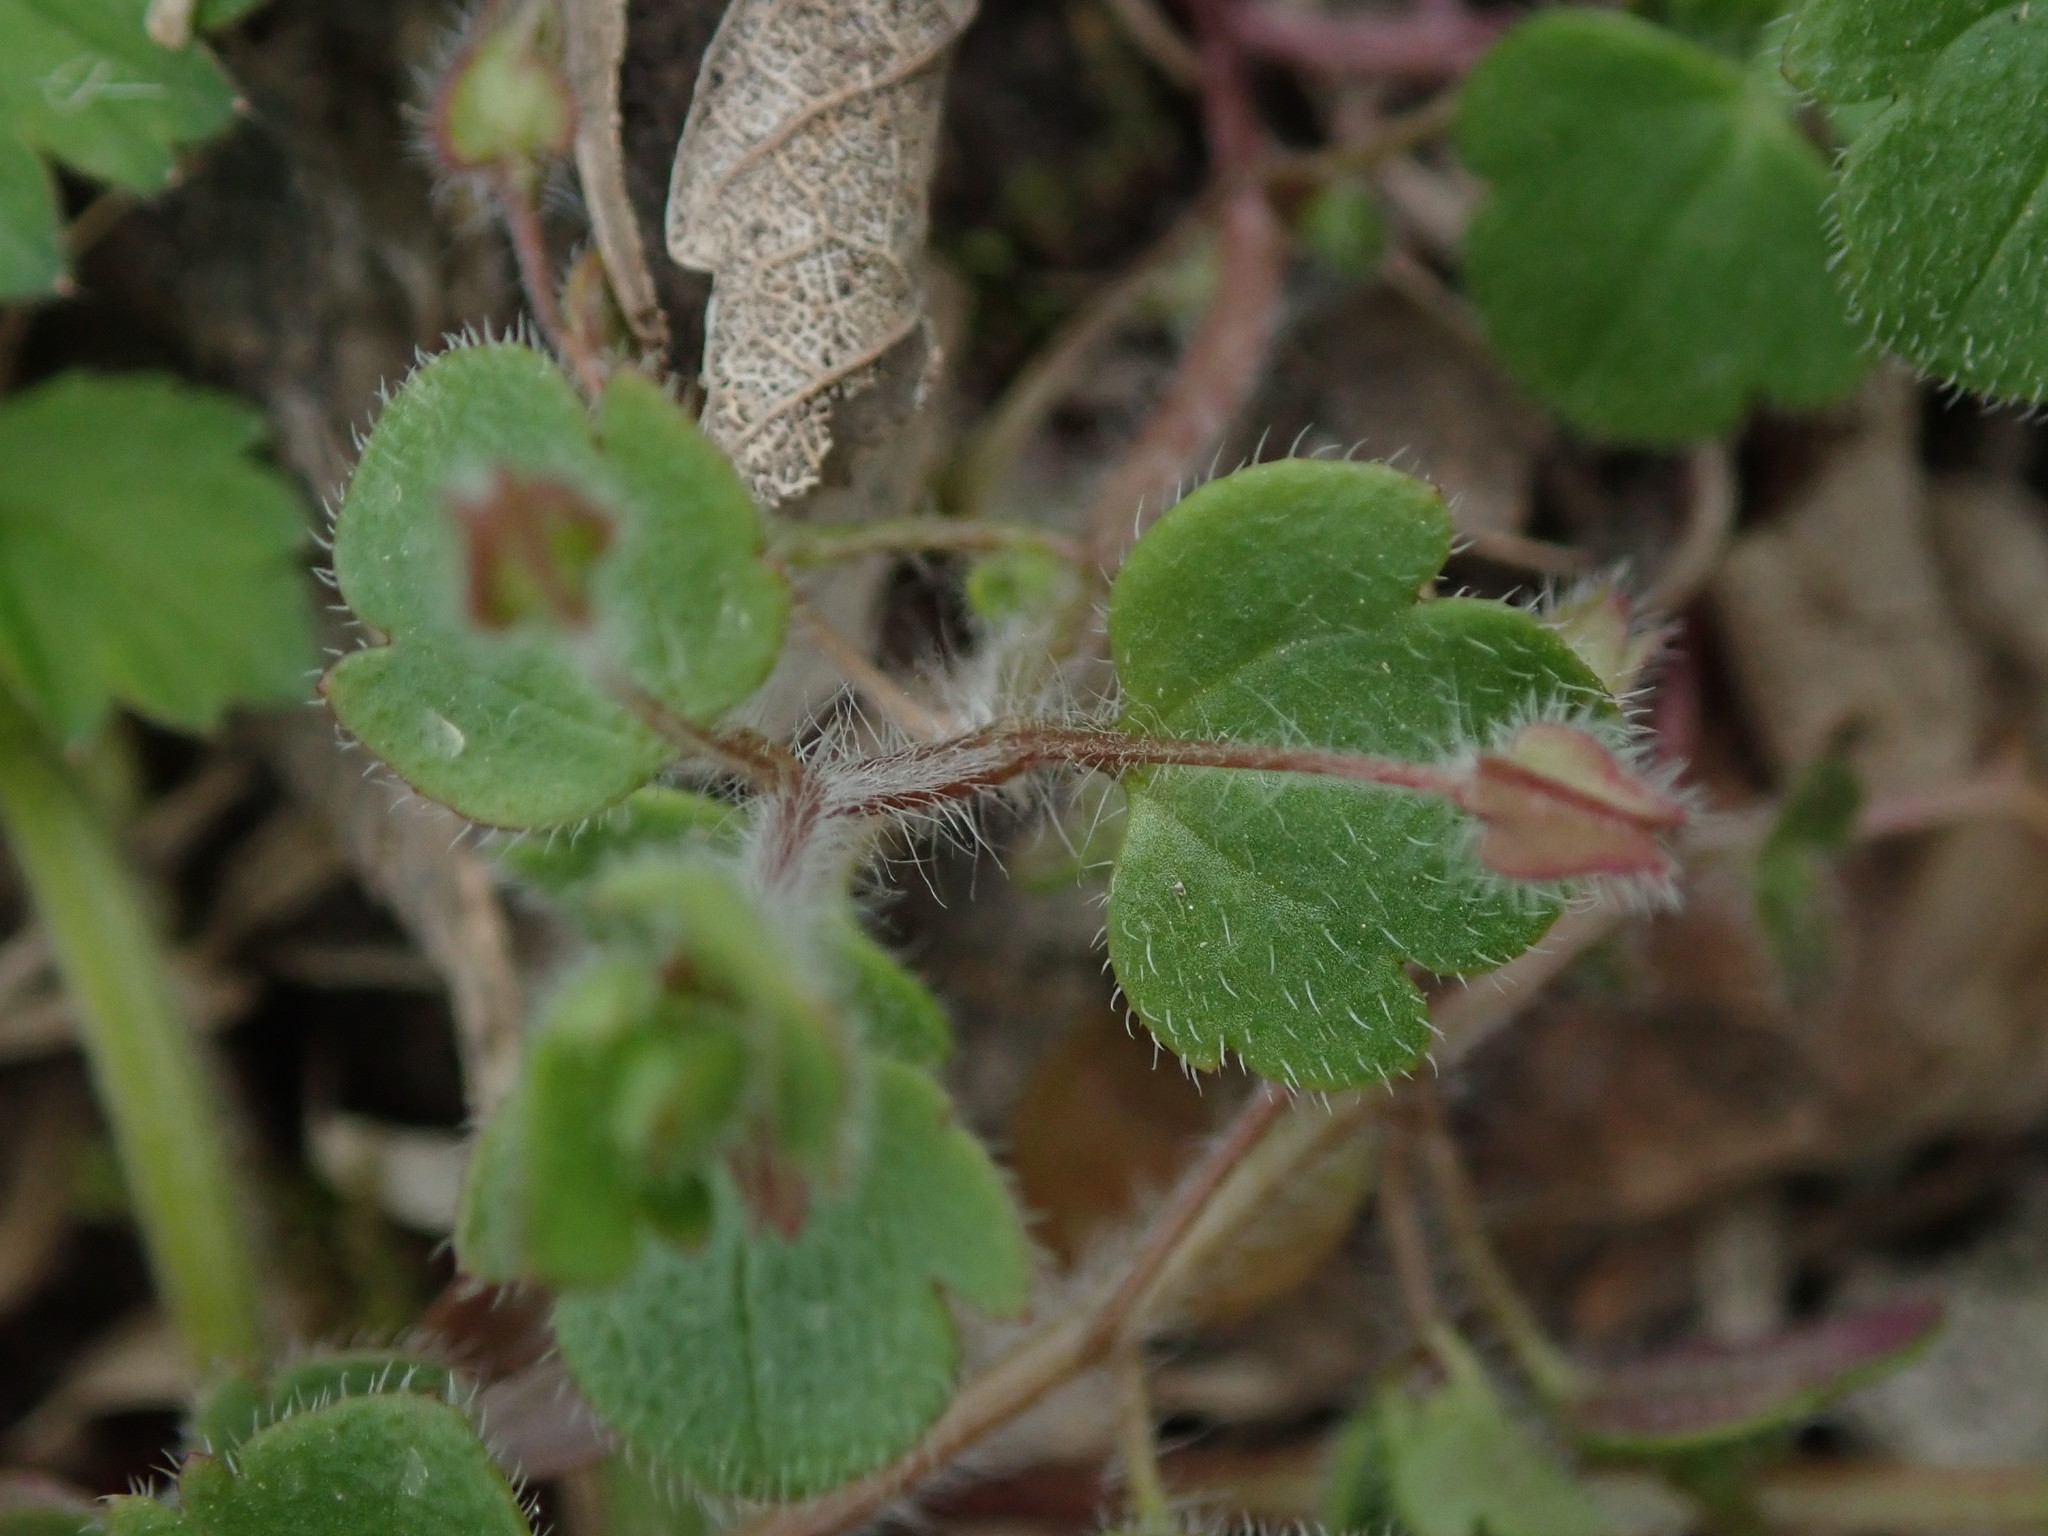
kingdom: Plantae
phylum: Tracheophyta
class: Magnoliopsida
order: Lamiales
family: Plantaginaceae
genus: Veronica
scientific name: Veronica sublobata
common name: False ivy-leaved speedwell
